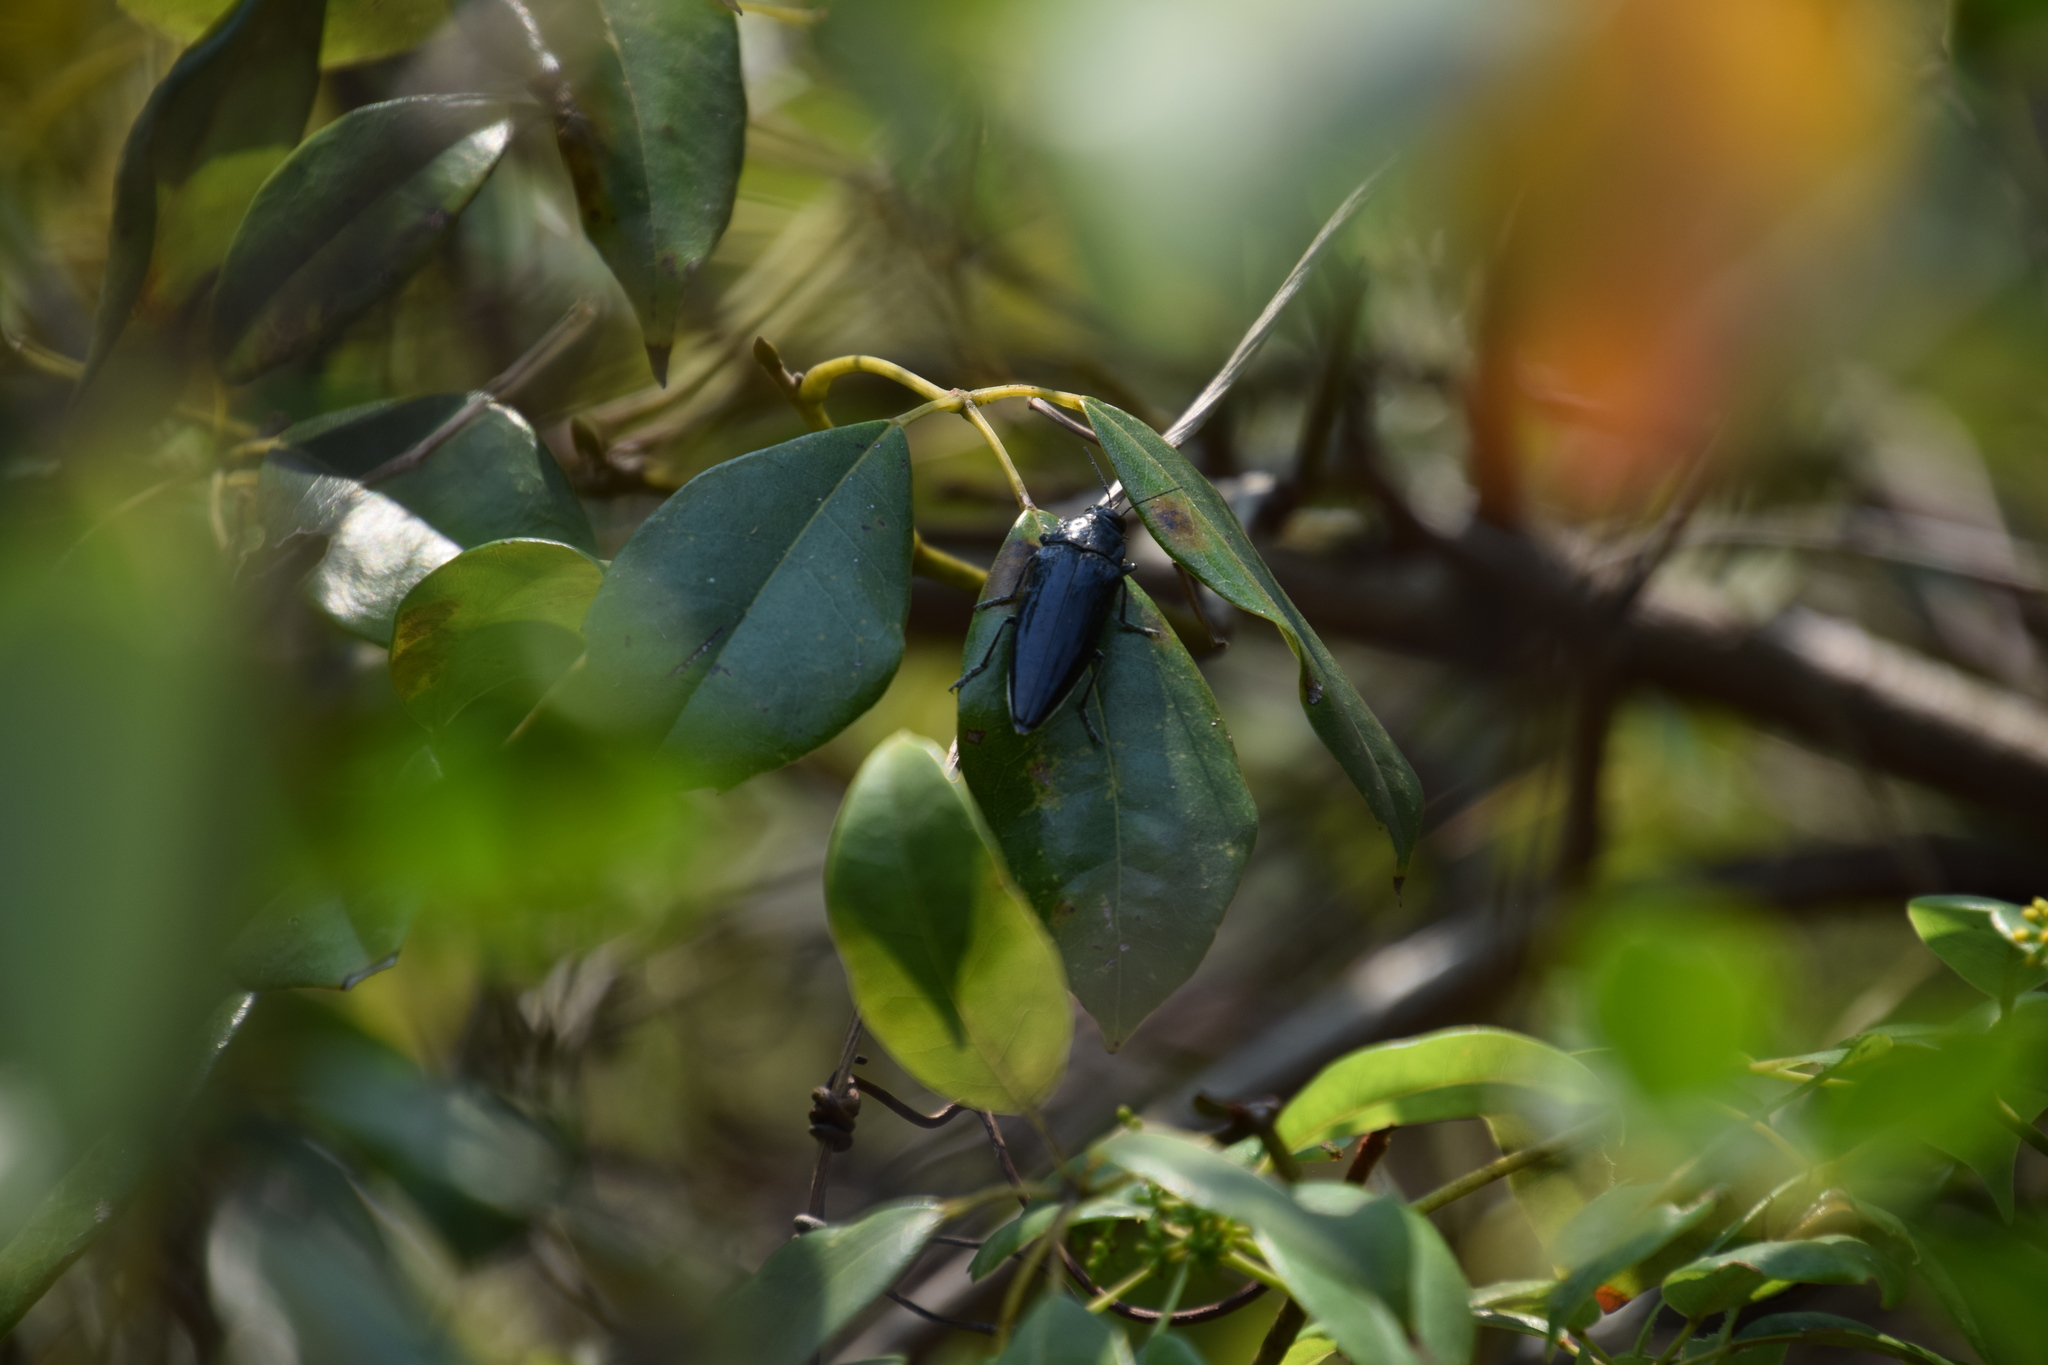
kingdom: Plantae
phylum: Tracheophyta
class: Magnoliopsida
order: Vitales
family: Vitaceae
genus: Nothocissus
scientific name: Nothocissus hypoglauca
